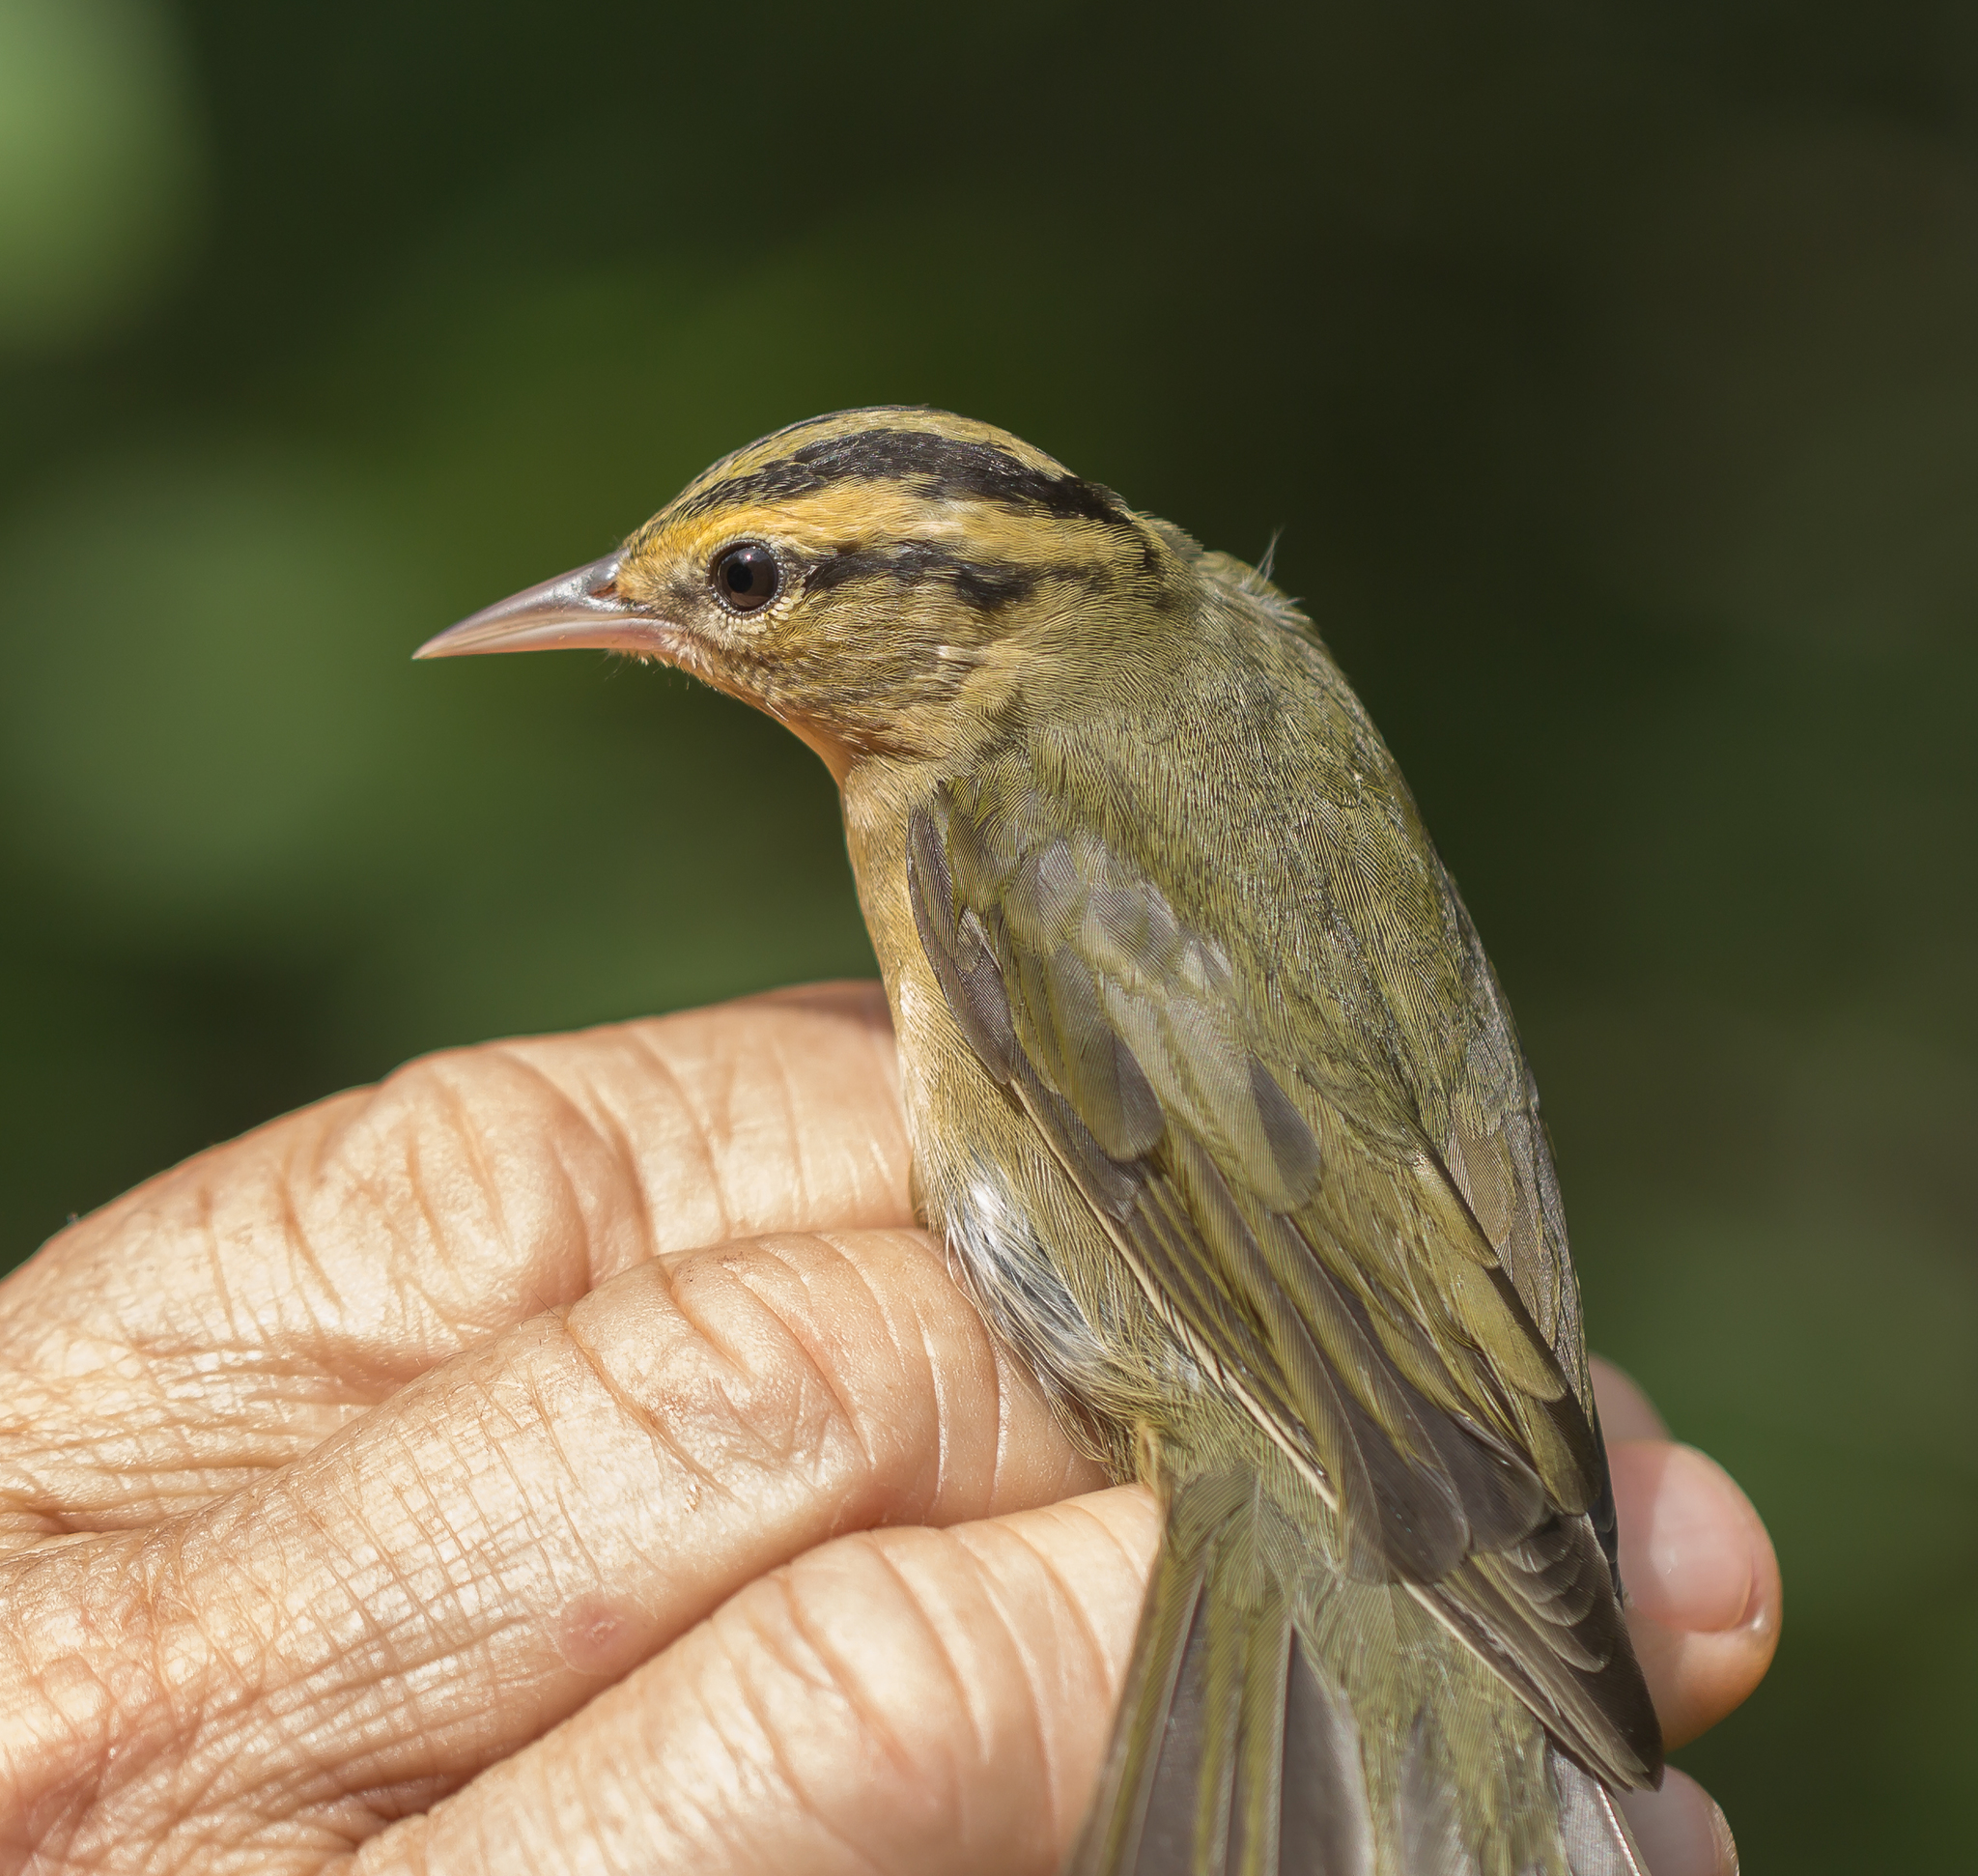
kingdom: Animalia
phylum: Chordata
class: Aves
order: Passeriformes
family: Parulidae
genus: Helmitheros
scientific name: Helmitheros vermivorum
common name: Worm-eating warbler
